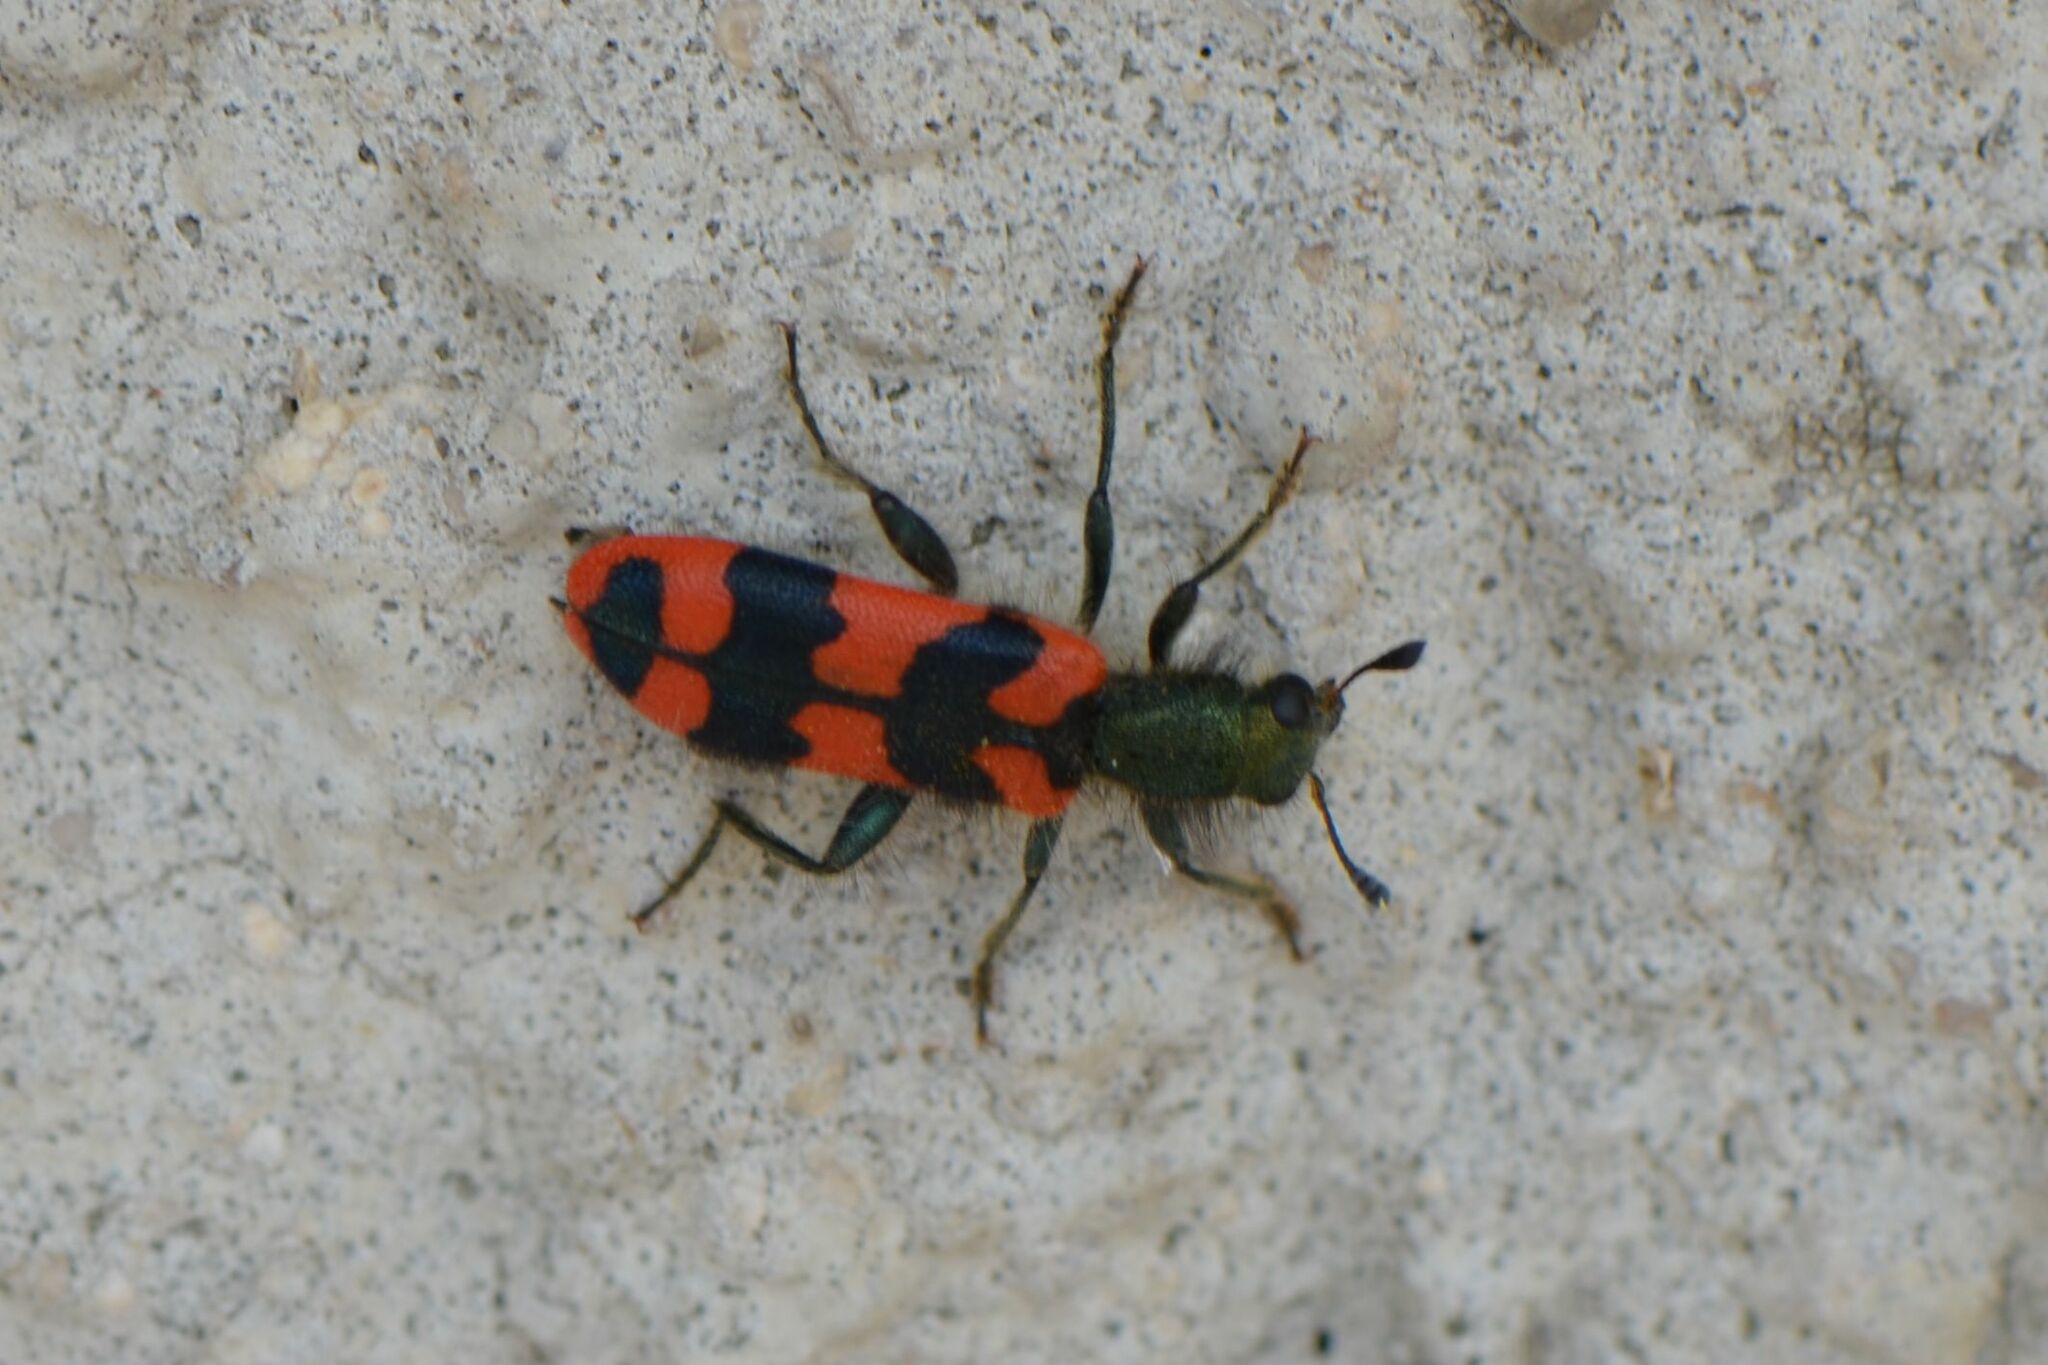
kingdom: Animalia
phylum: Arthropoda
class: Insecta
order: Coleoptera
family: Cleridae
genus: Trichodes
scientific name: Trichodes alvearius
